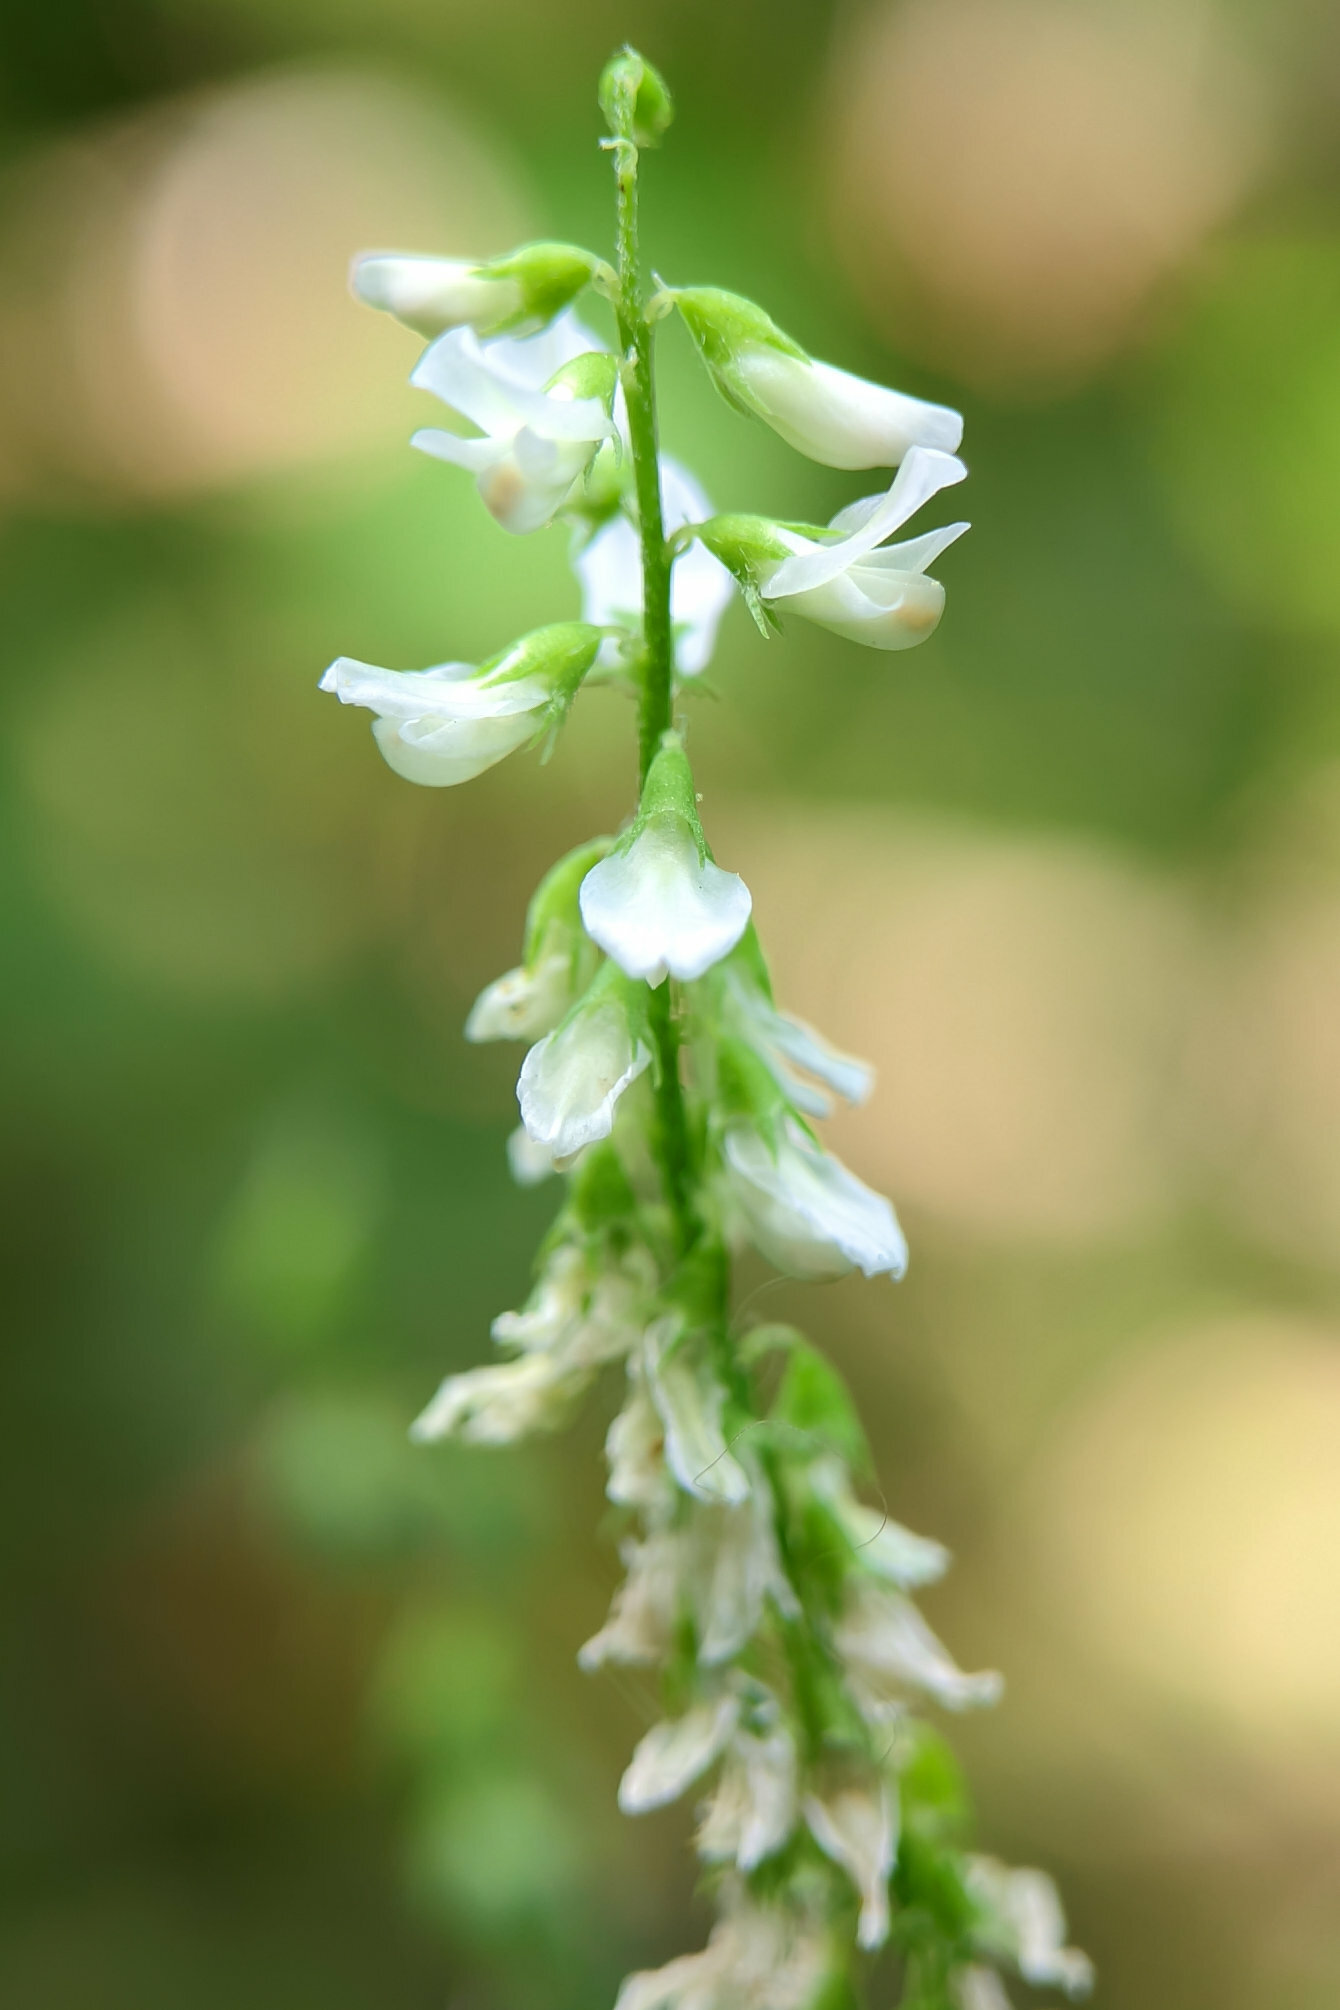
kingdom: Plantae
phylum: Tracheophyta
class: Magnoliopsida
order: Fabales
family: Fabaceae
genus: Melilotus
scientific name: Melilotus albus
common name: White melilot
